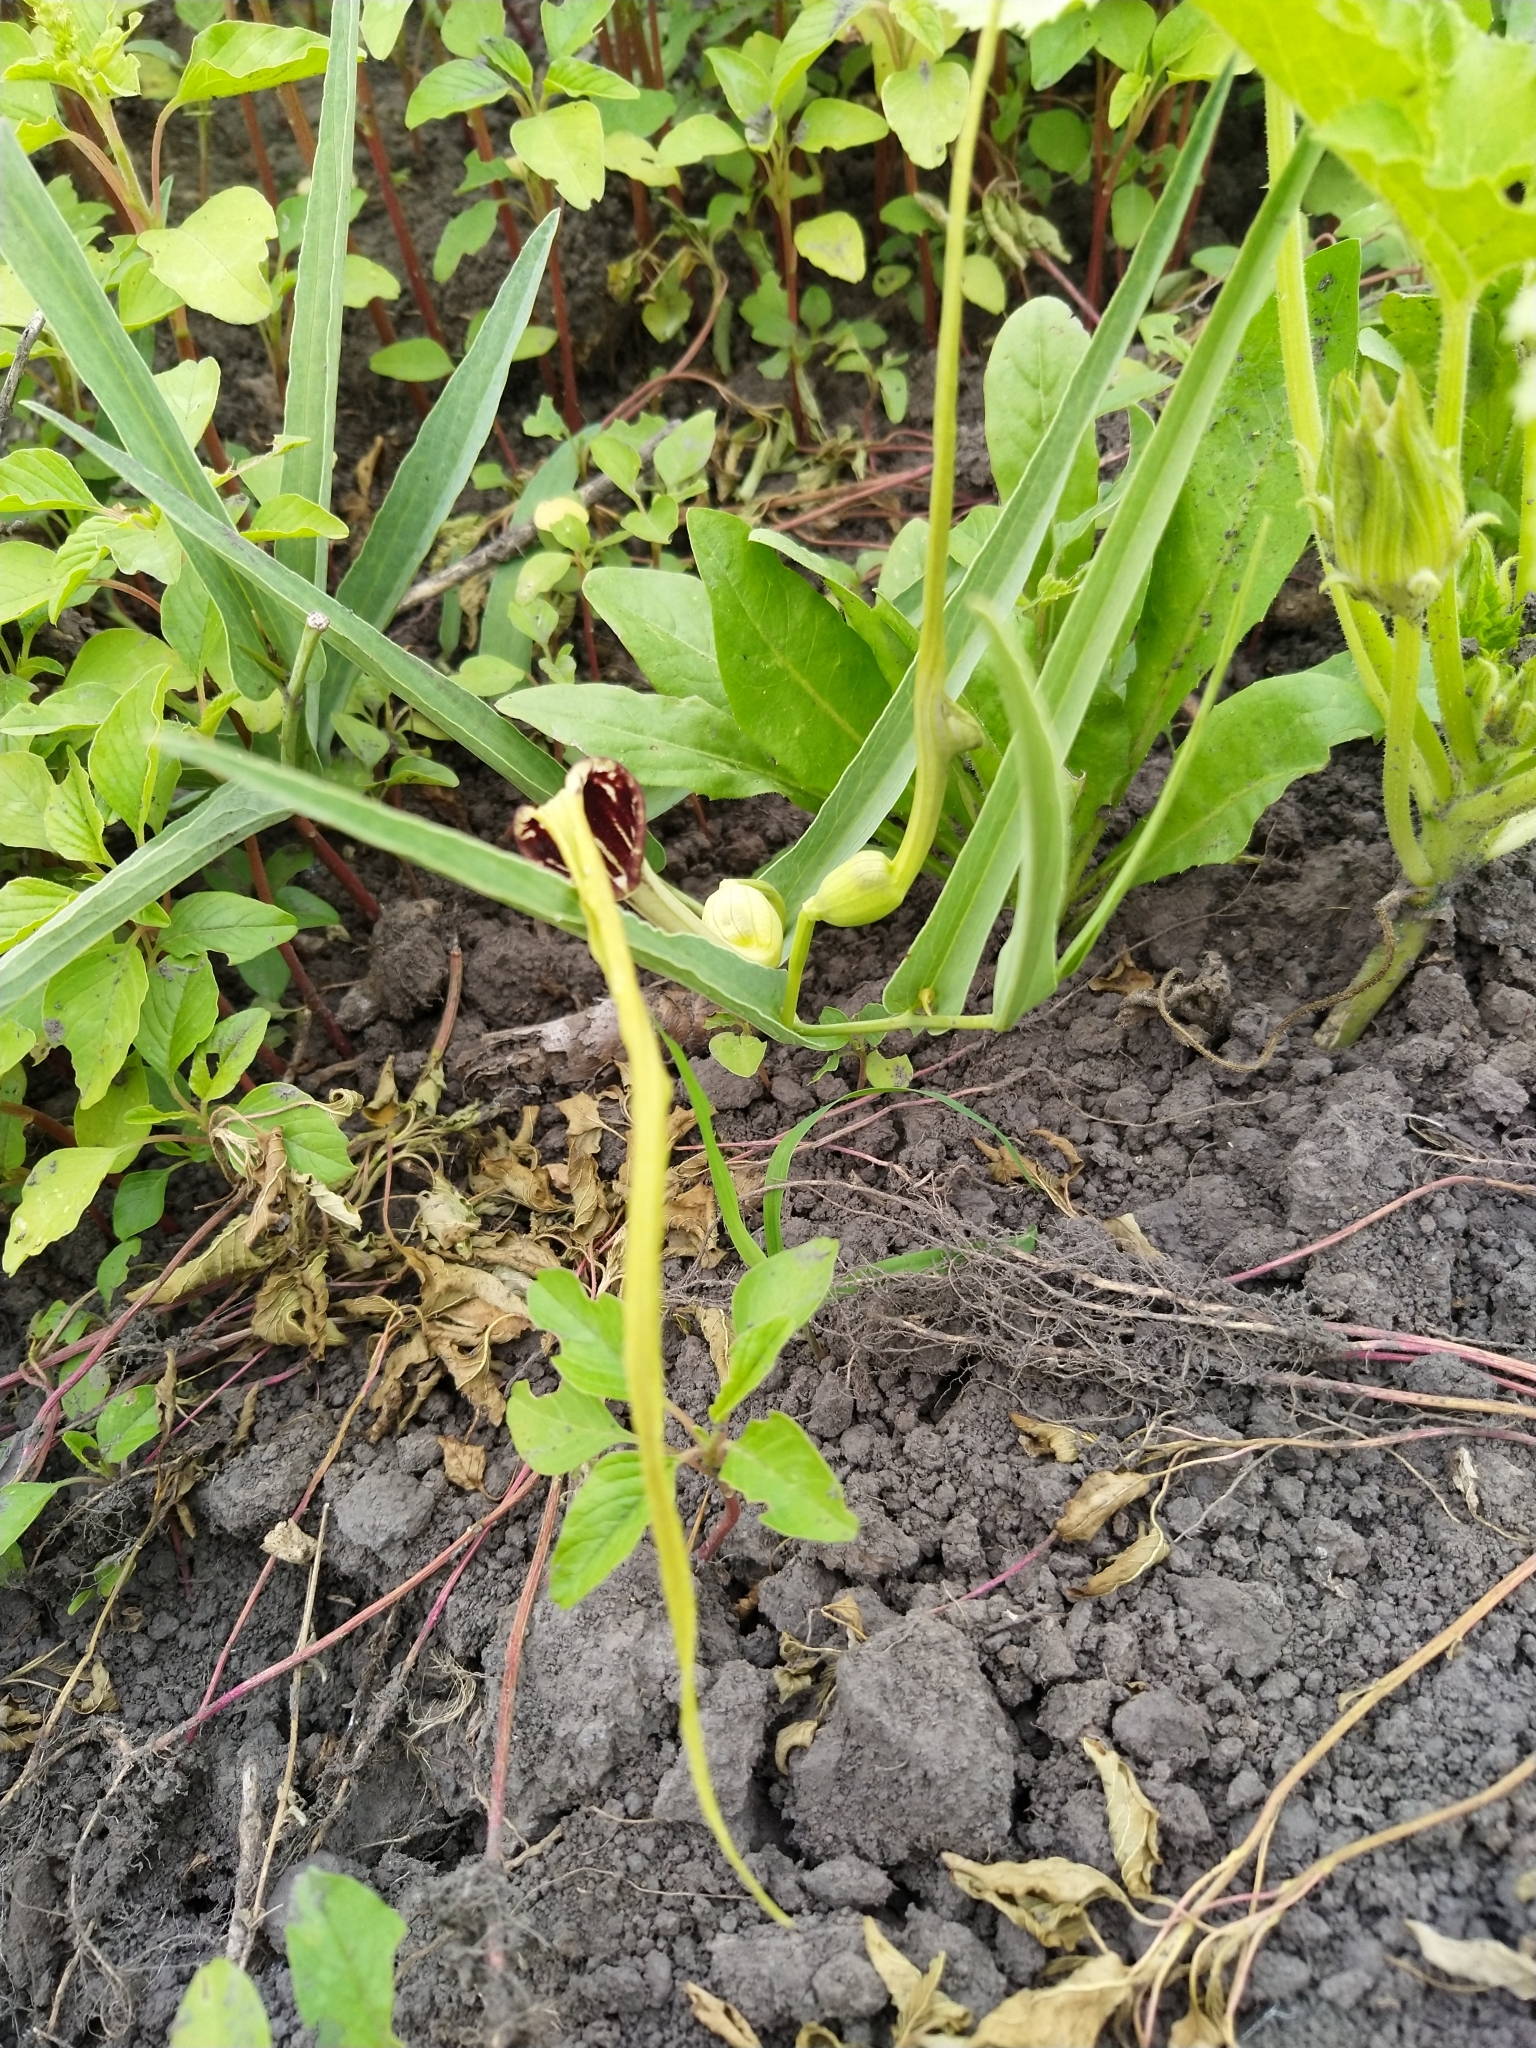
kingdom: Plantae
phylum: Tracheophyta
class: Magnoliopsida
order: Piperales
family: Aristolochiaceae
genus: Aristolochia
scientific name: Aristolochia angustifolia
